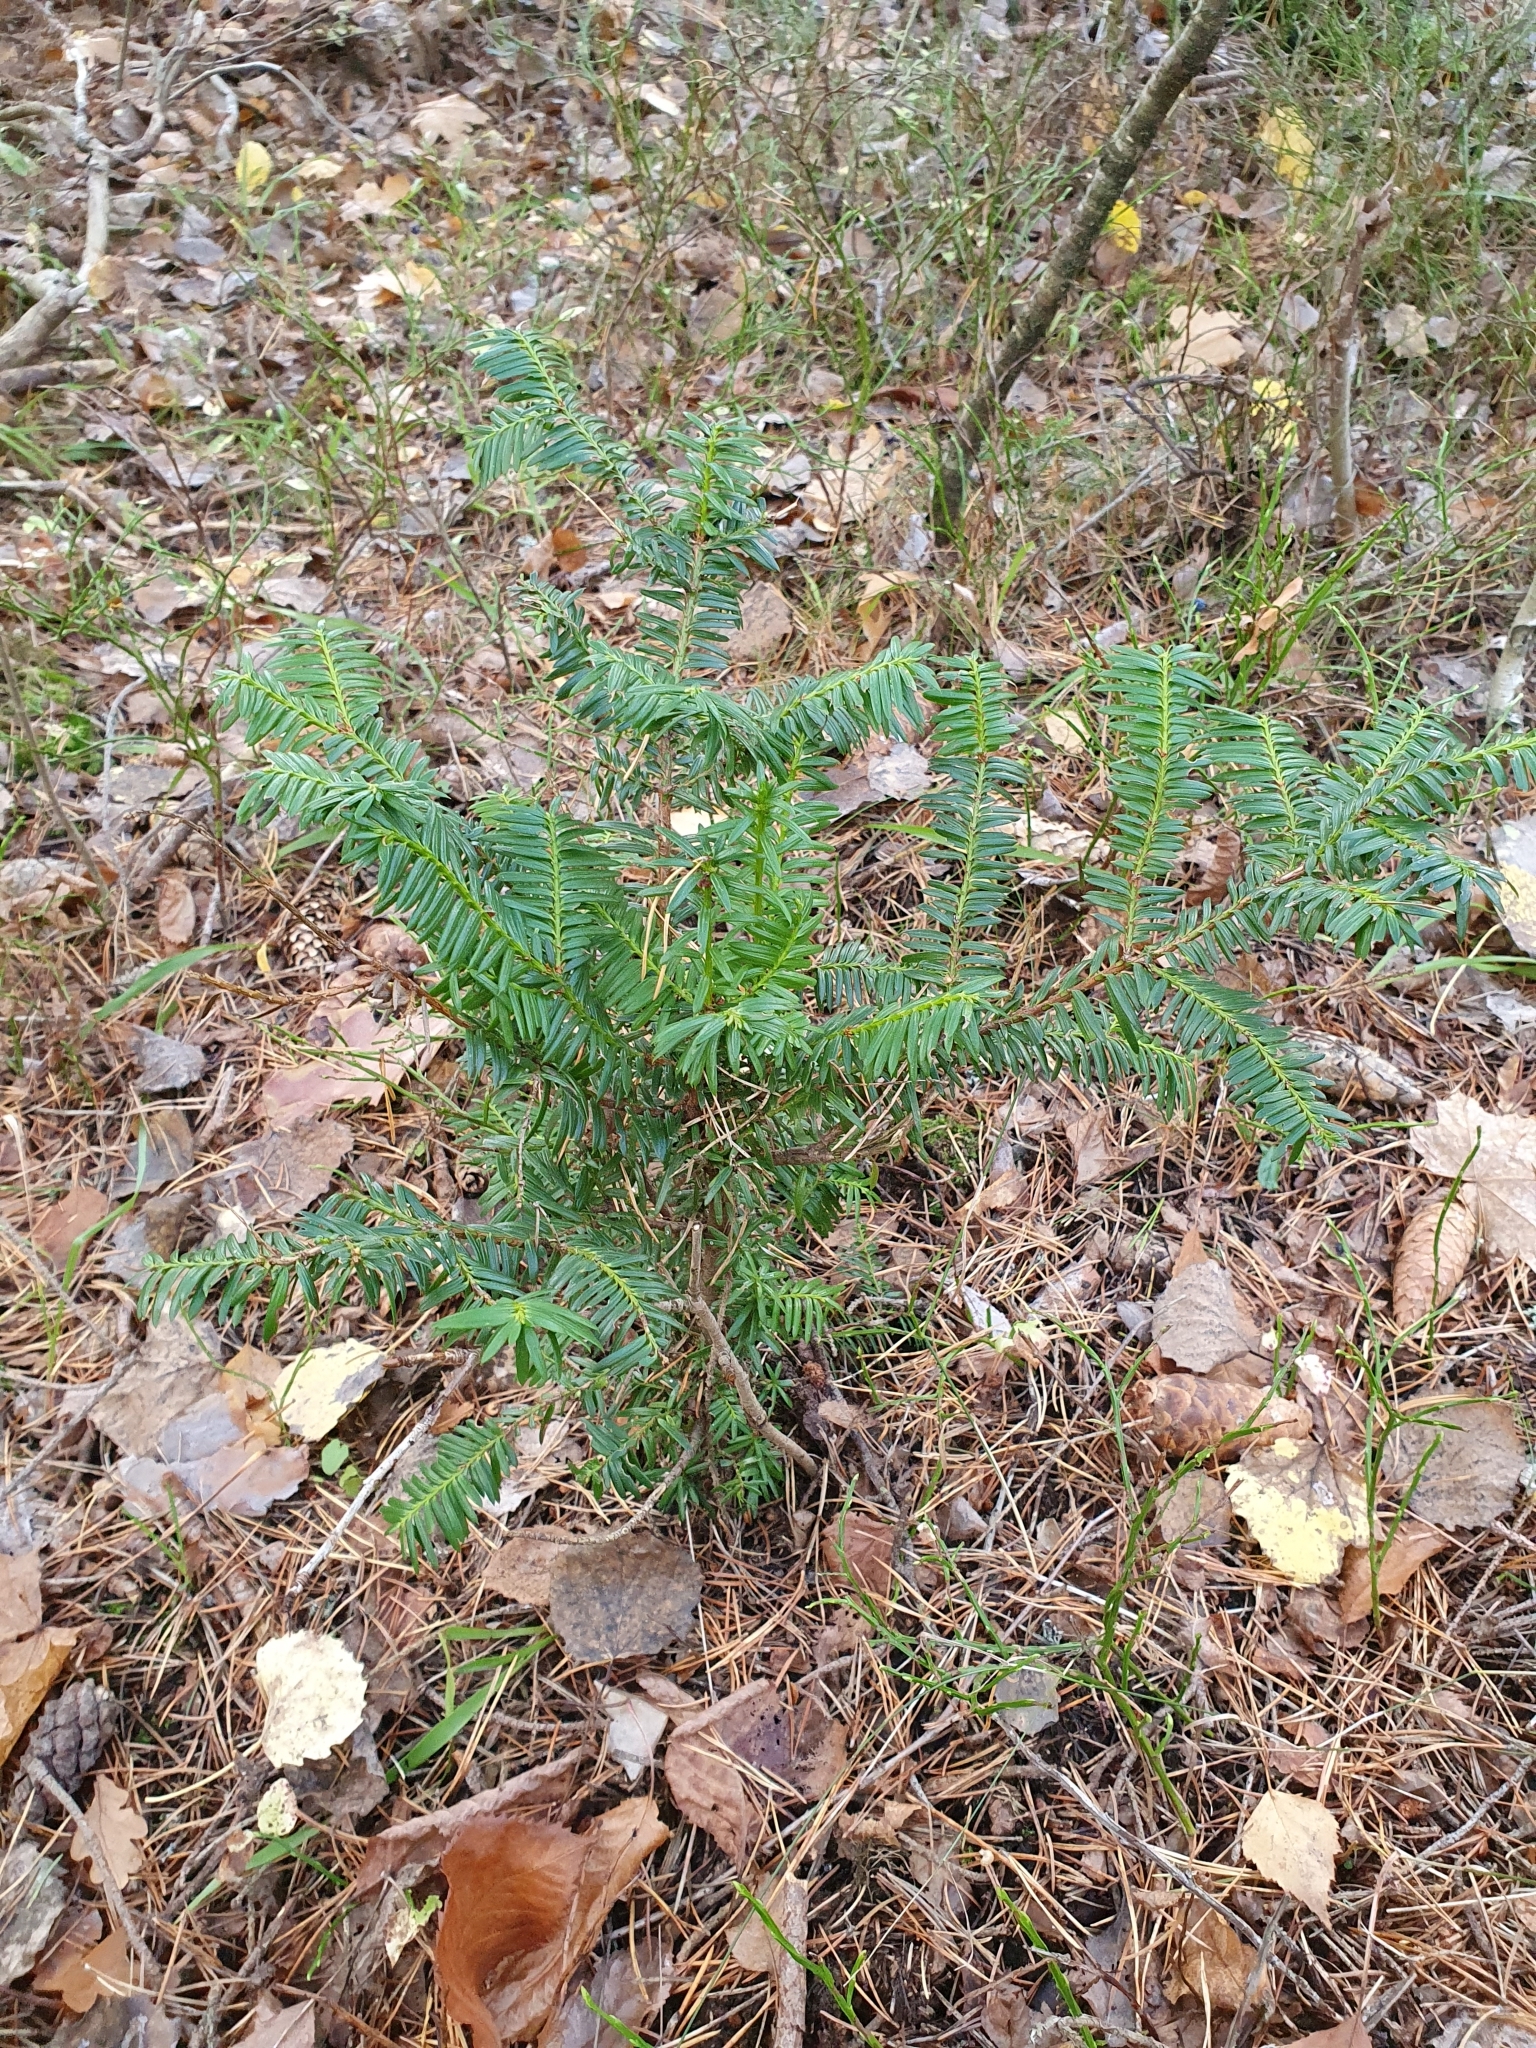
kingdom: Plantae
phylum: Tracheophyta
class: Pinopsida
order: Pinales
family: Taxaceae
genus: Taxus
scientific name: Taxus baccata
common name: Yew
